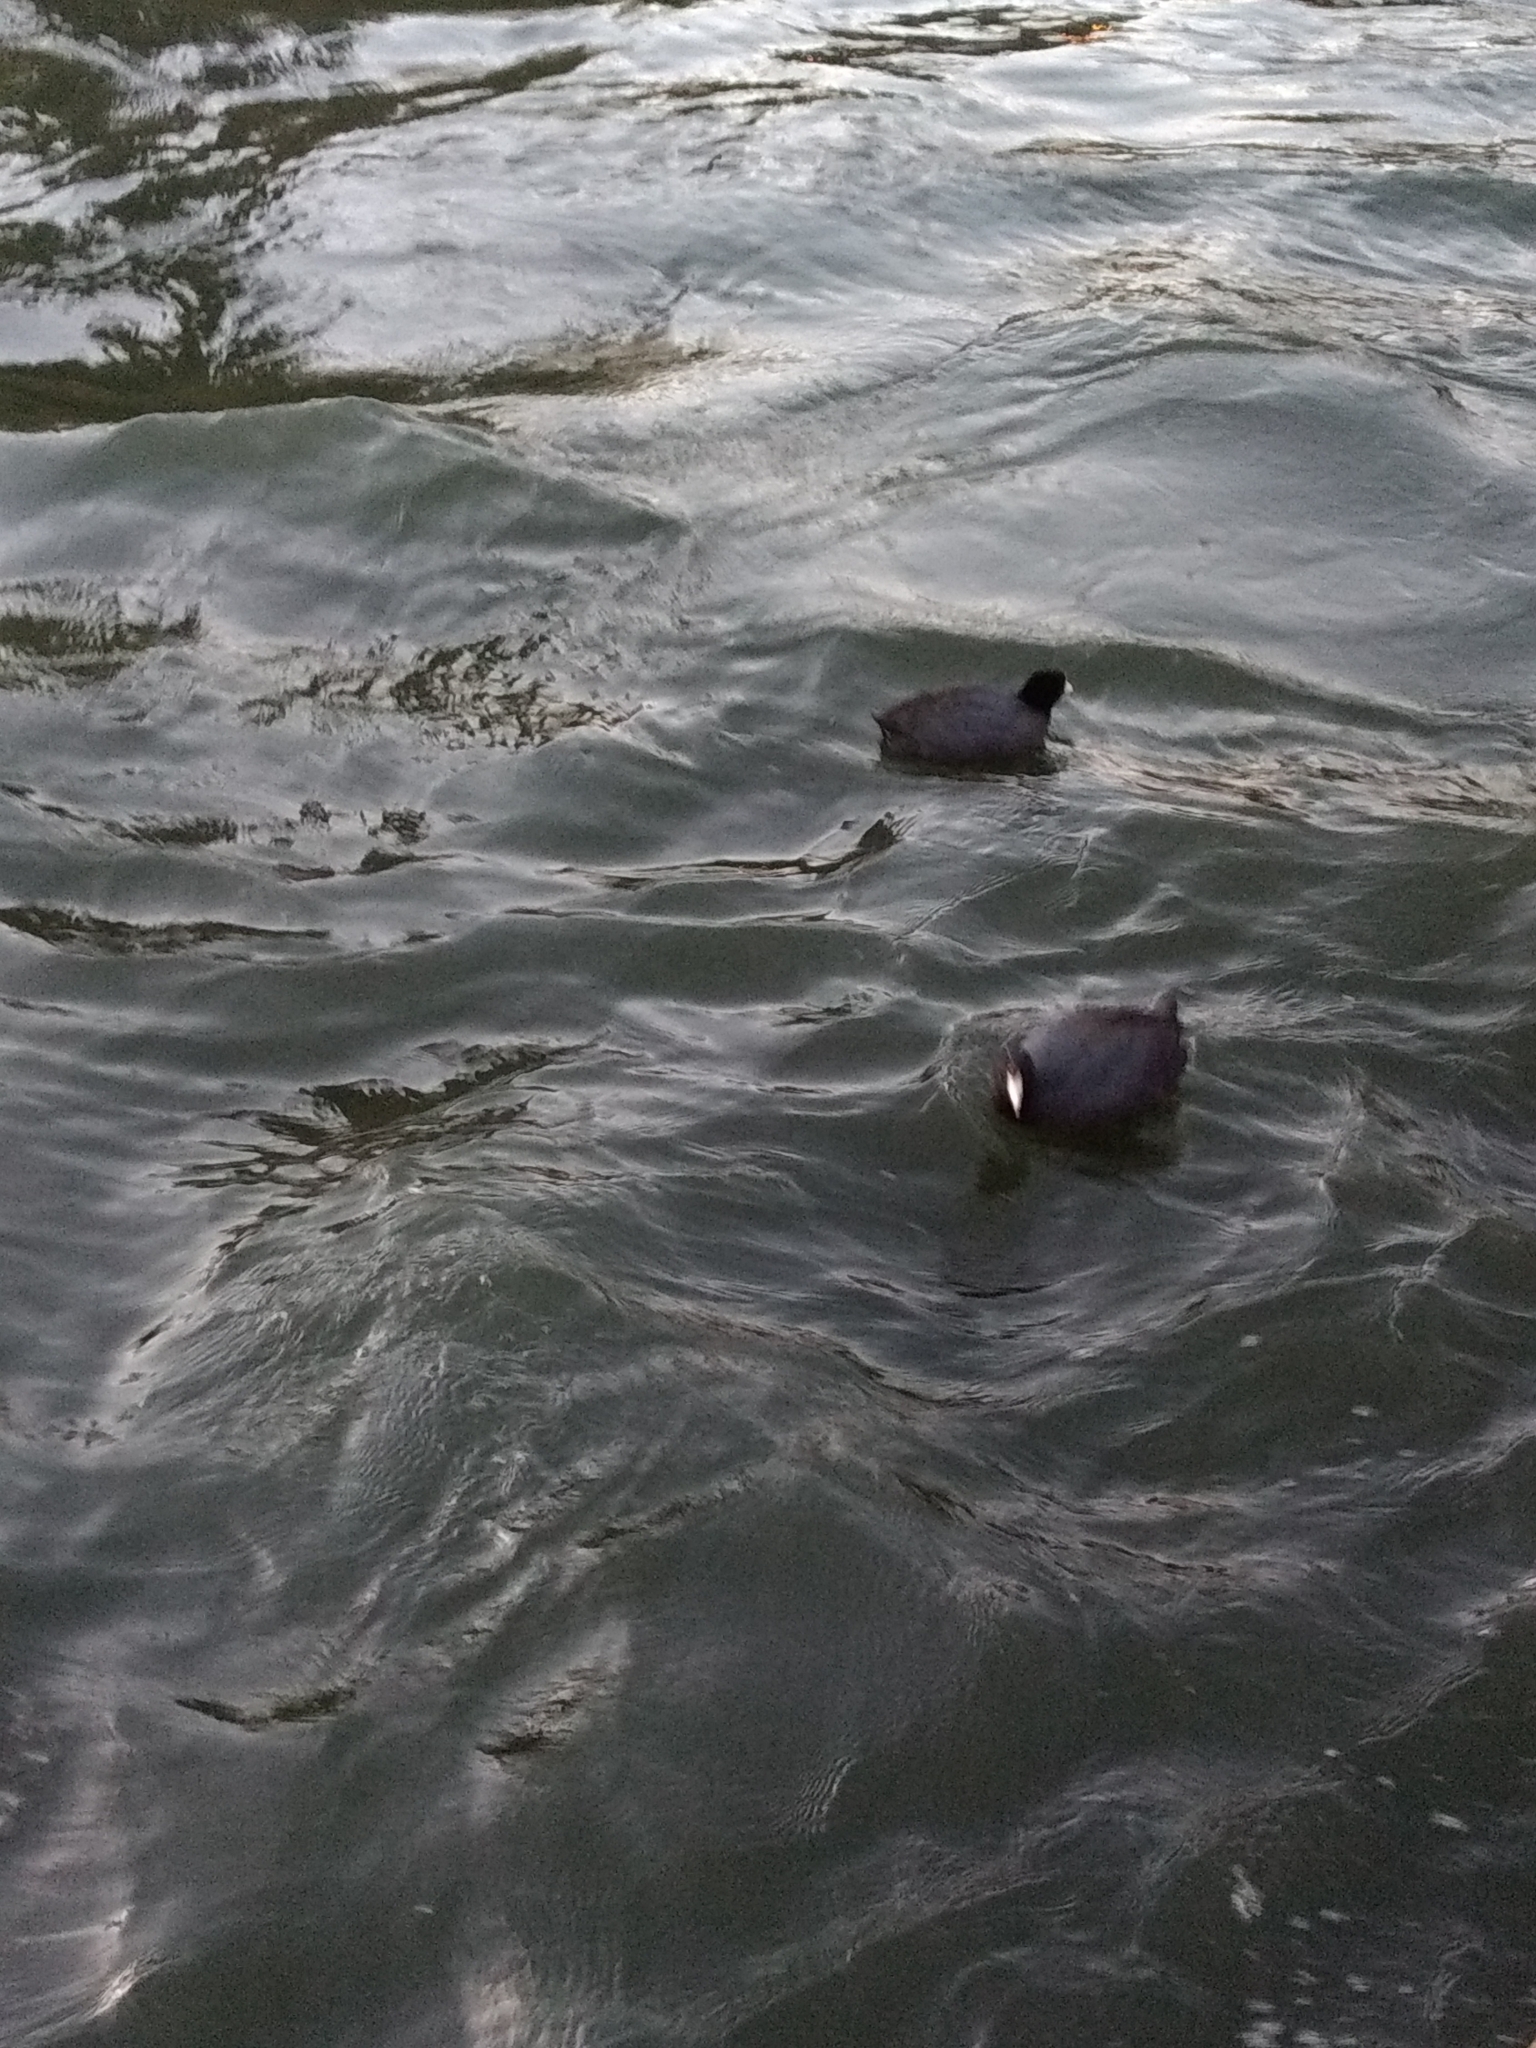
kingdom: Animalia
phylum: Chordata
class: Aves
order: Gruiformes
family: Rallidae
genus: Fulica
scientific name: Fulica americana
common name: American coot
